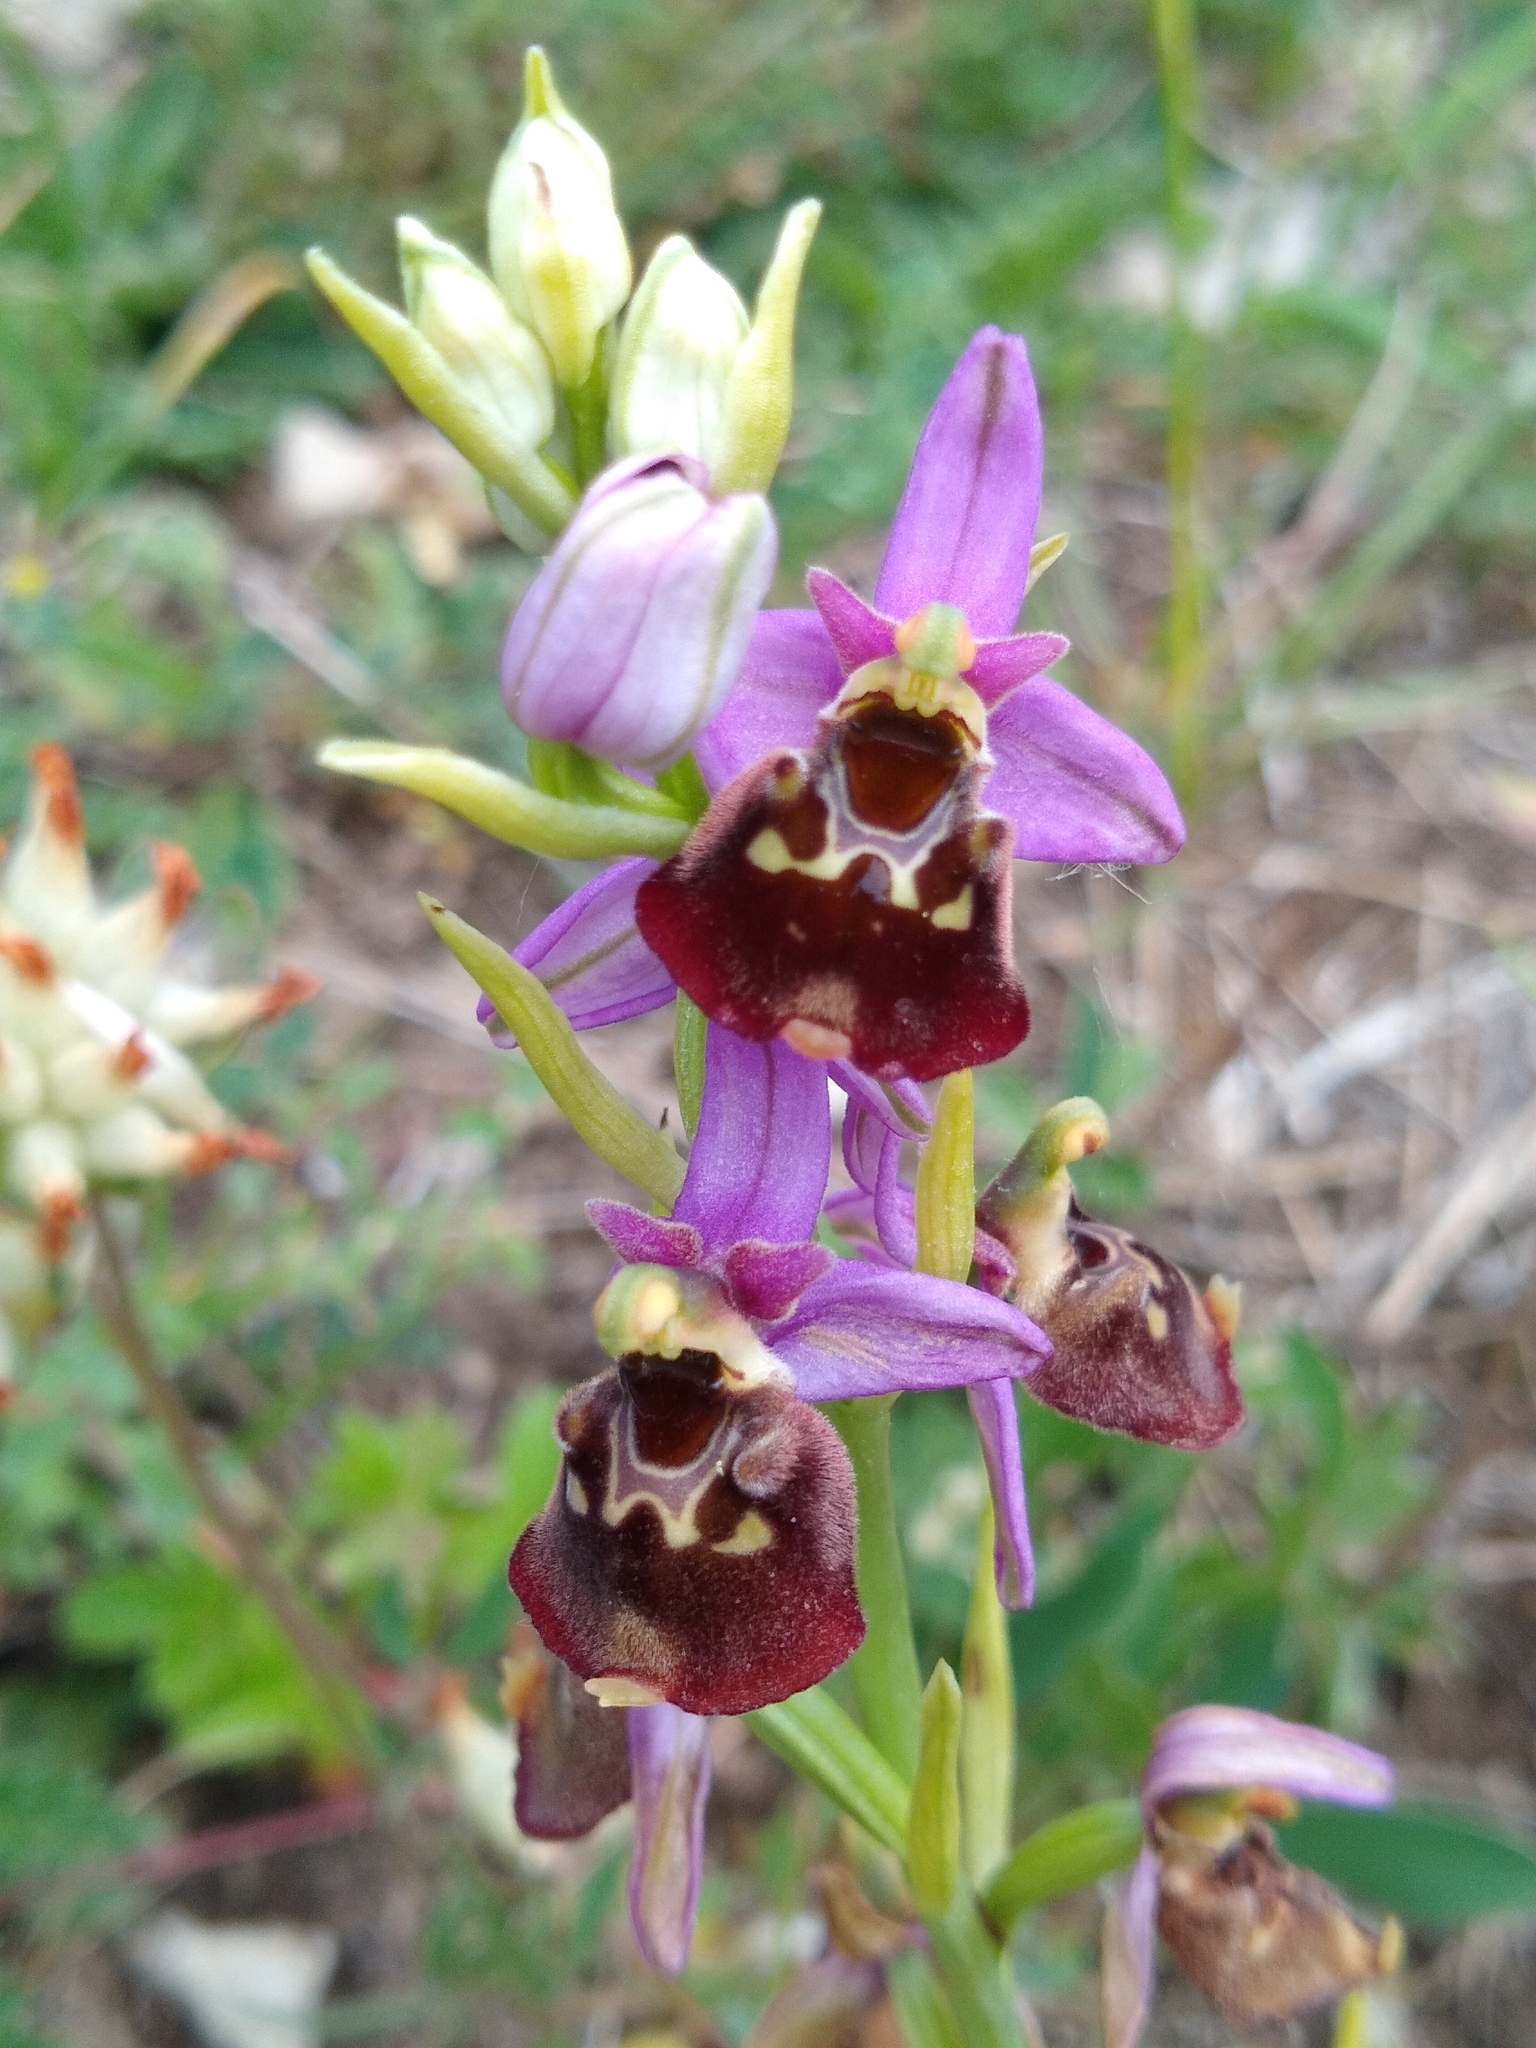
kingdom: Plantae
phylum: Tracheophyta
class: Liliopsida
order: Asparagales
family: Orchidaceae
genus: Ophrys
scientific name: Ophrys holosericea
